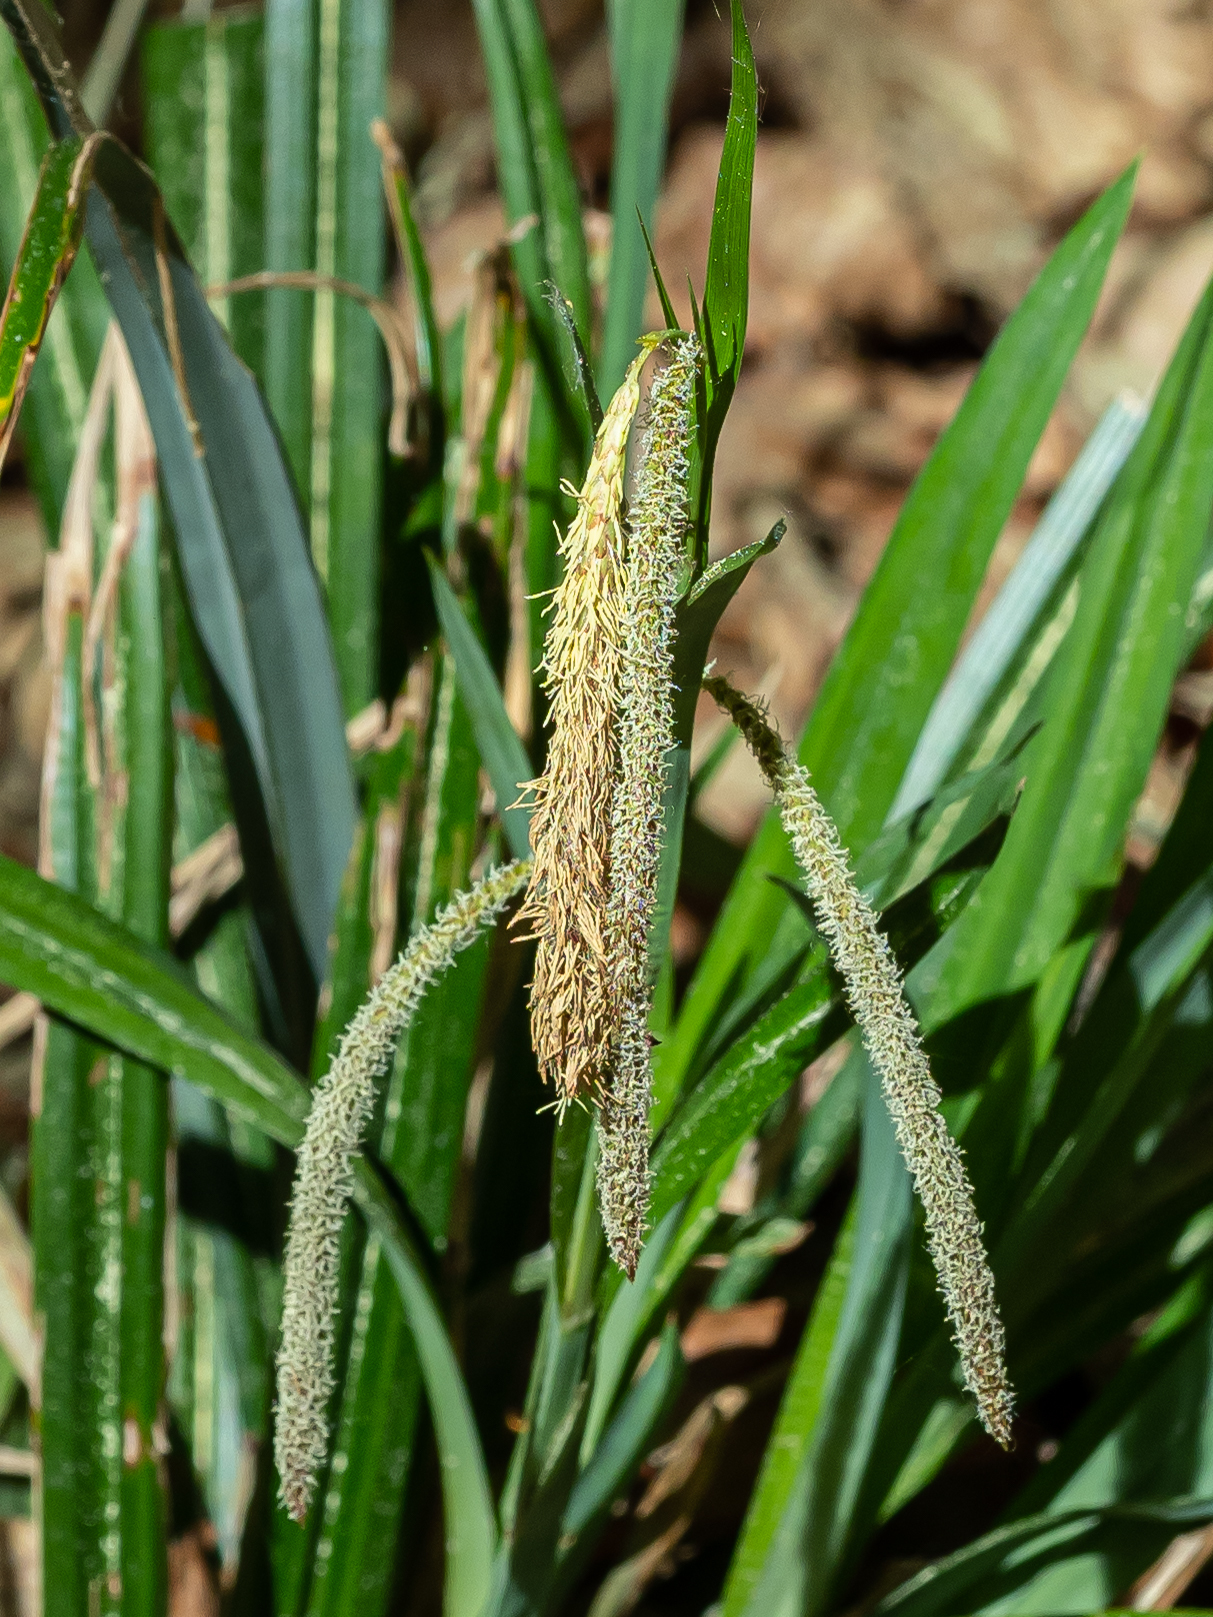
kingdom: Plantae
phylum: Tracheophyta
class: Liliopsida
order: Poales
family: Cyperaceae
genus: Carex
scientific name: Carex pendula
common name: Pendulous sedge
